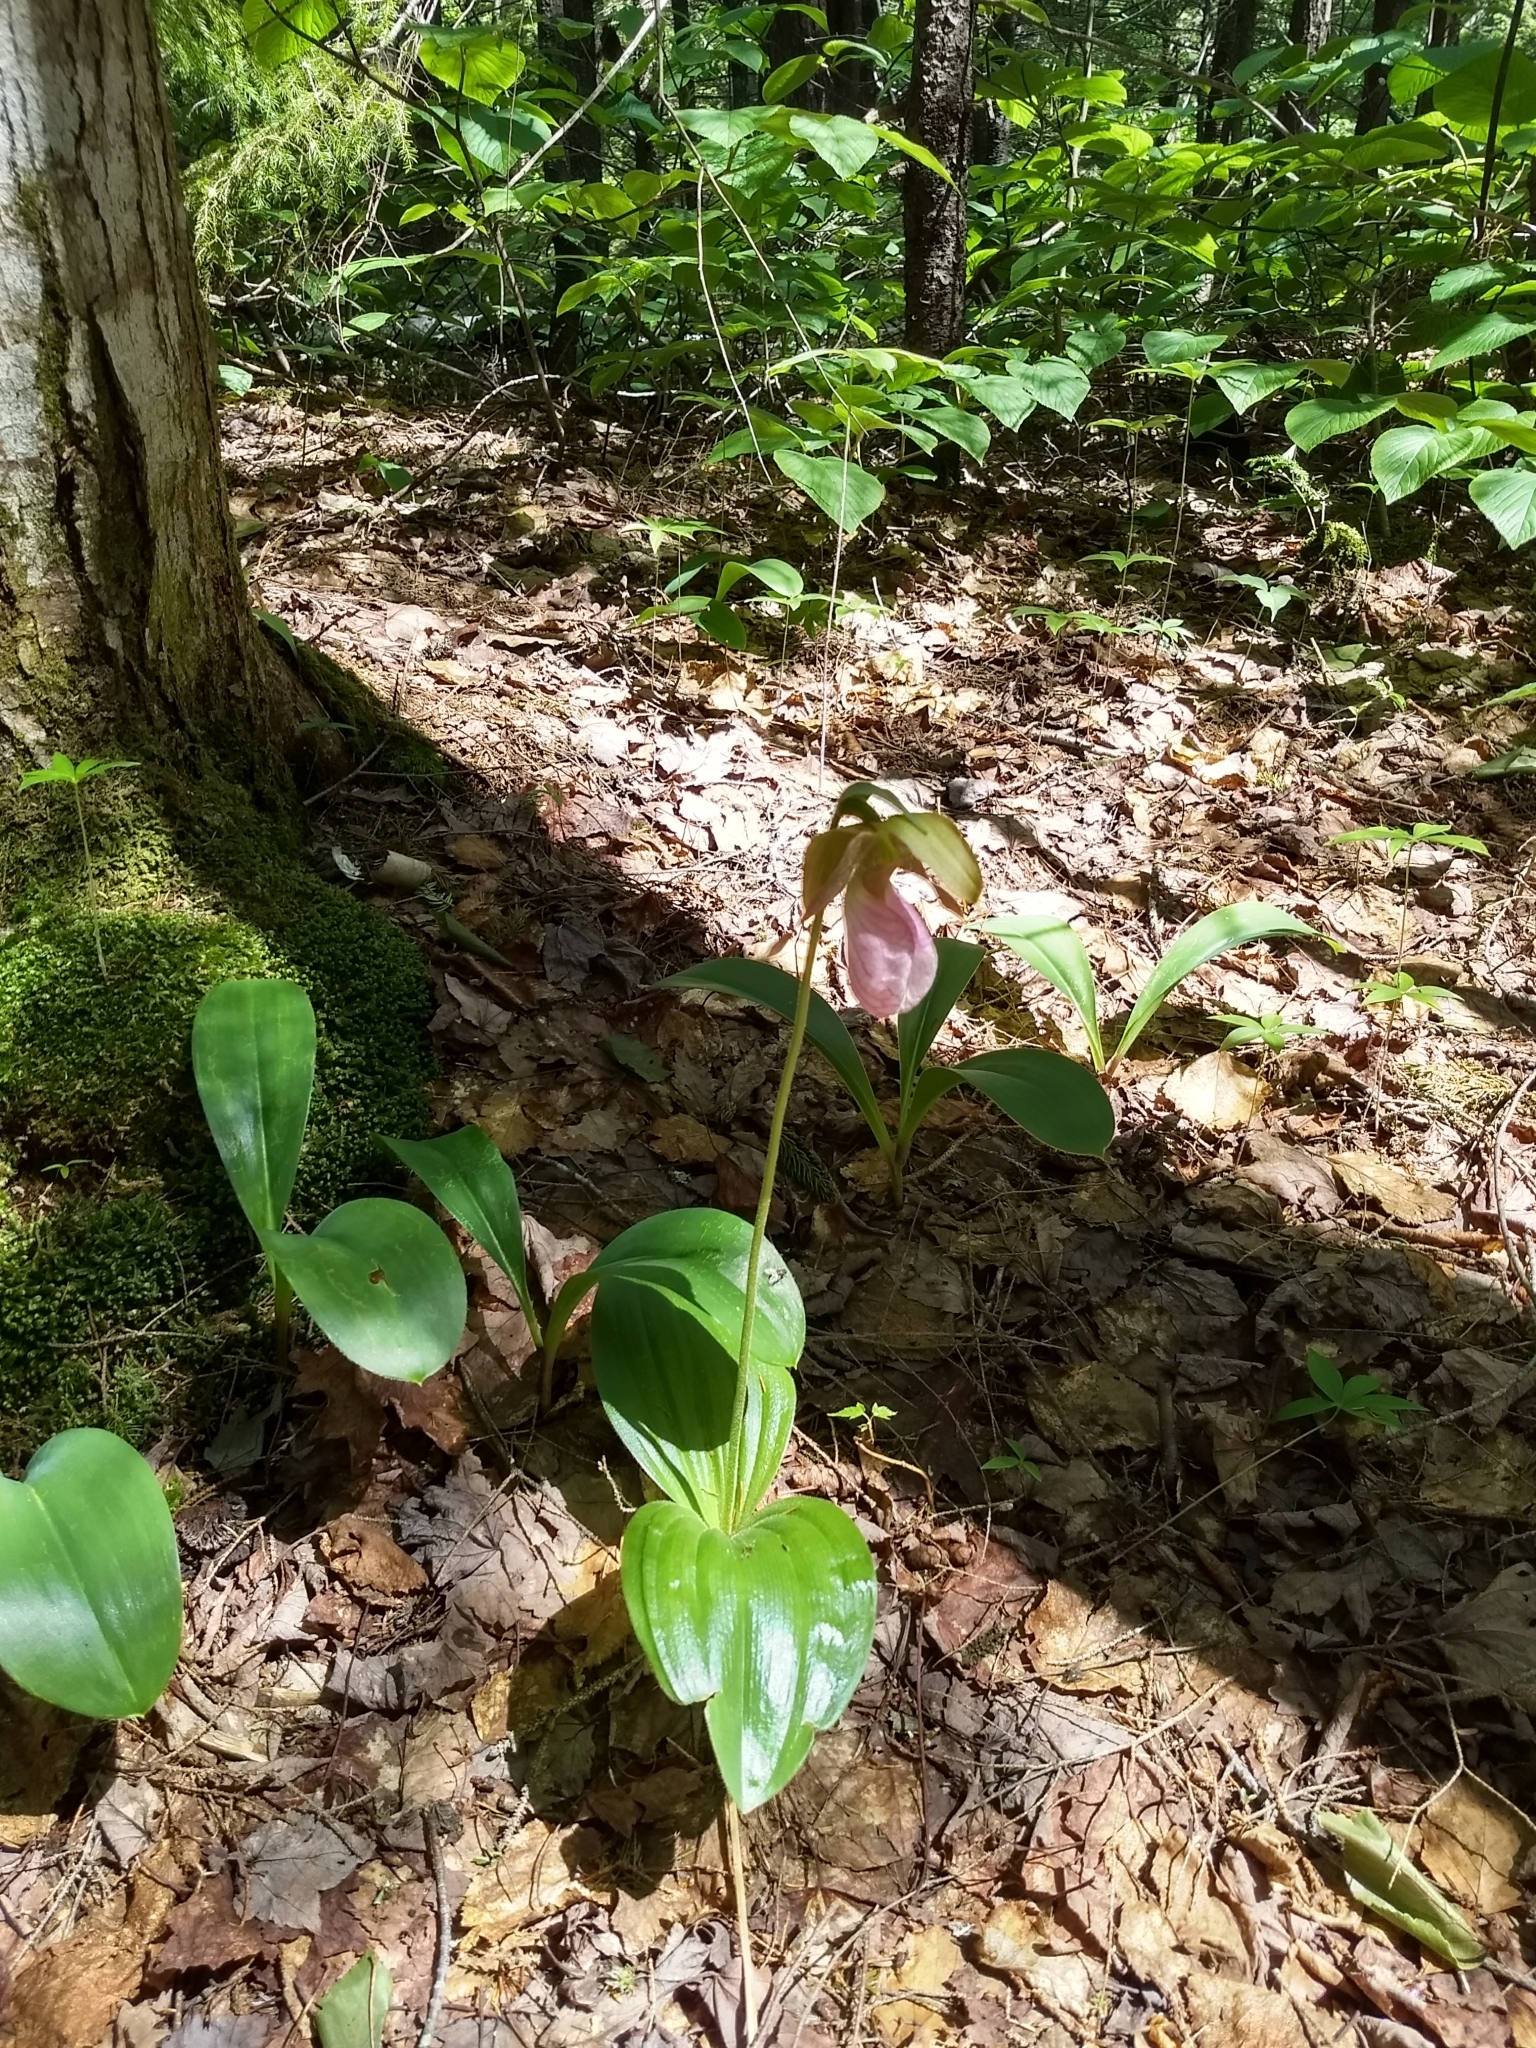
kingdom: Plantae
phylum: Tracheophyta
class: Liliopsida
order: Asparagales
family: Orchidaceae
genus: Cypripedium
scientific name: Cypripedium acaule
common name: Pink lady's-slipper
